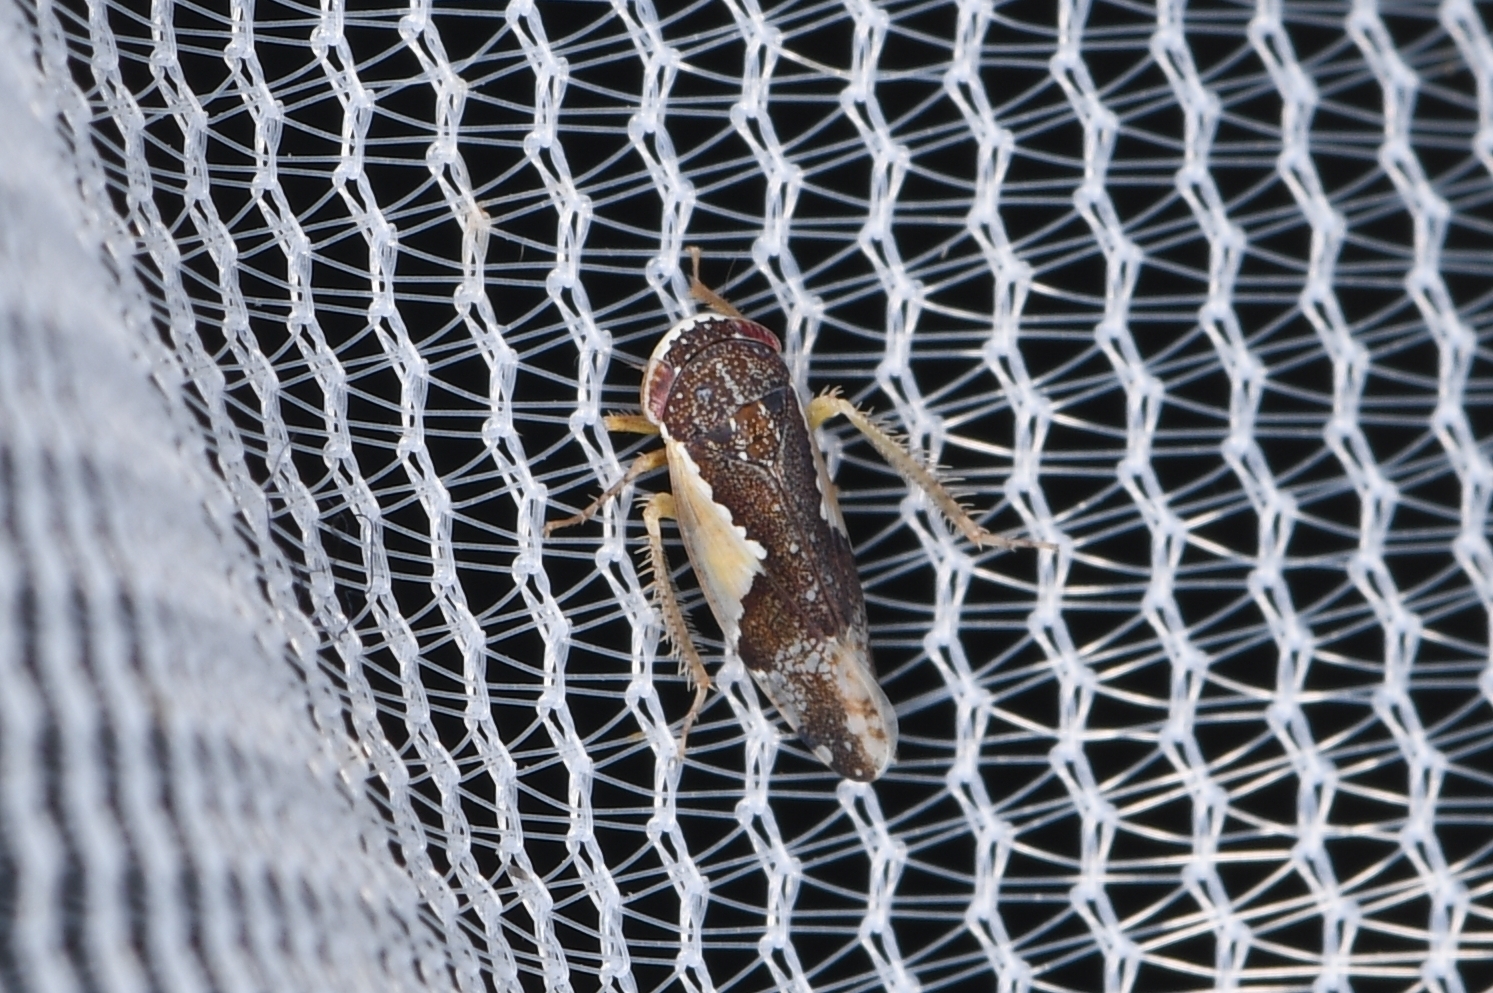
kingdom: Animalia
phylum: Arthropoda
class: Insecta
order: Hemiptera
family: Cicadellidae
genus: Norvellina
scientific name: Norvellina pulchella
